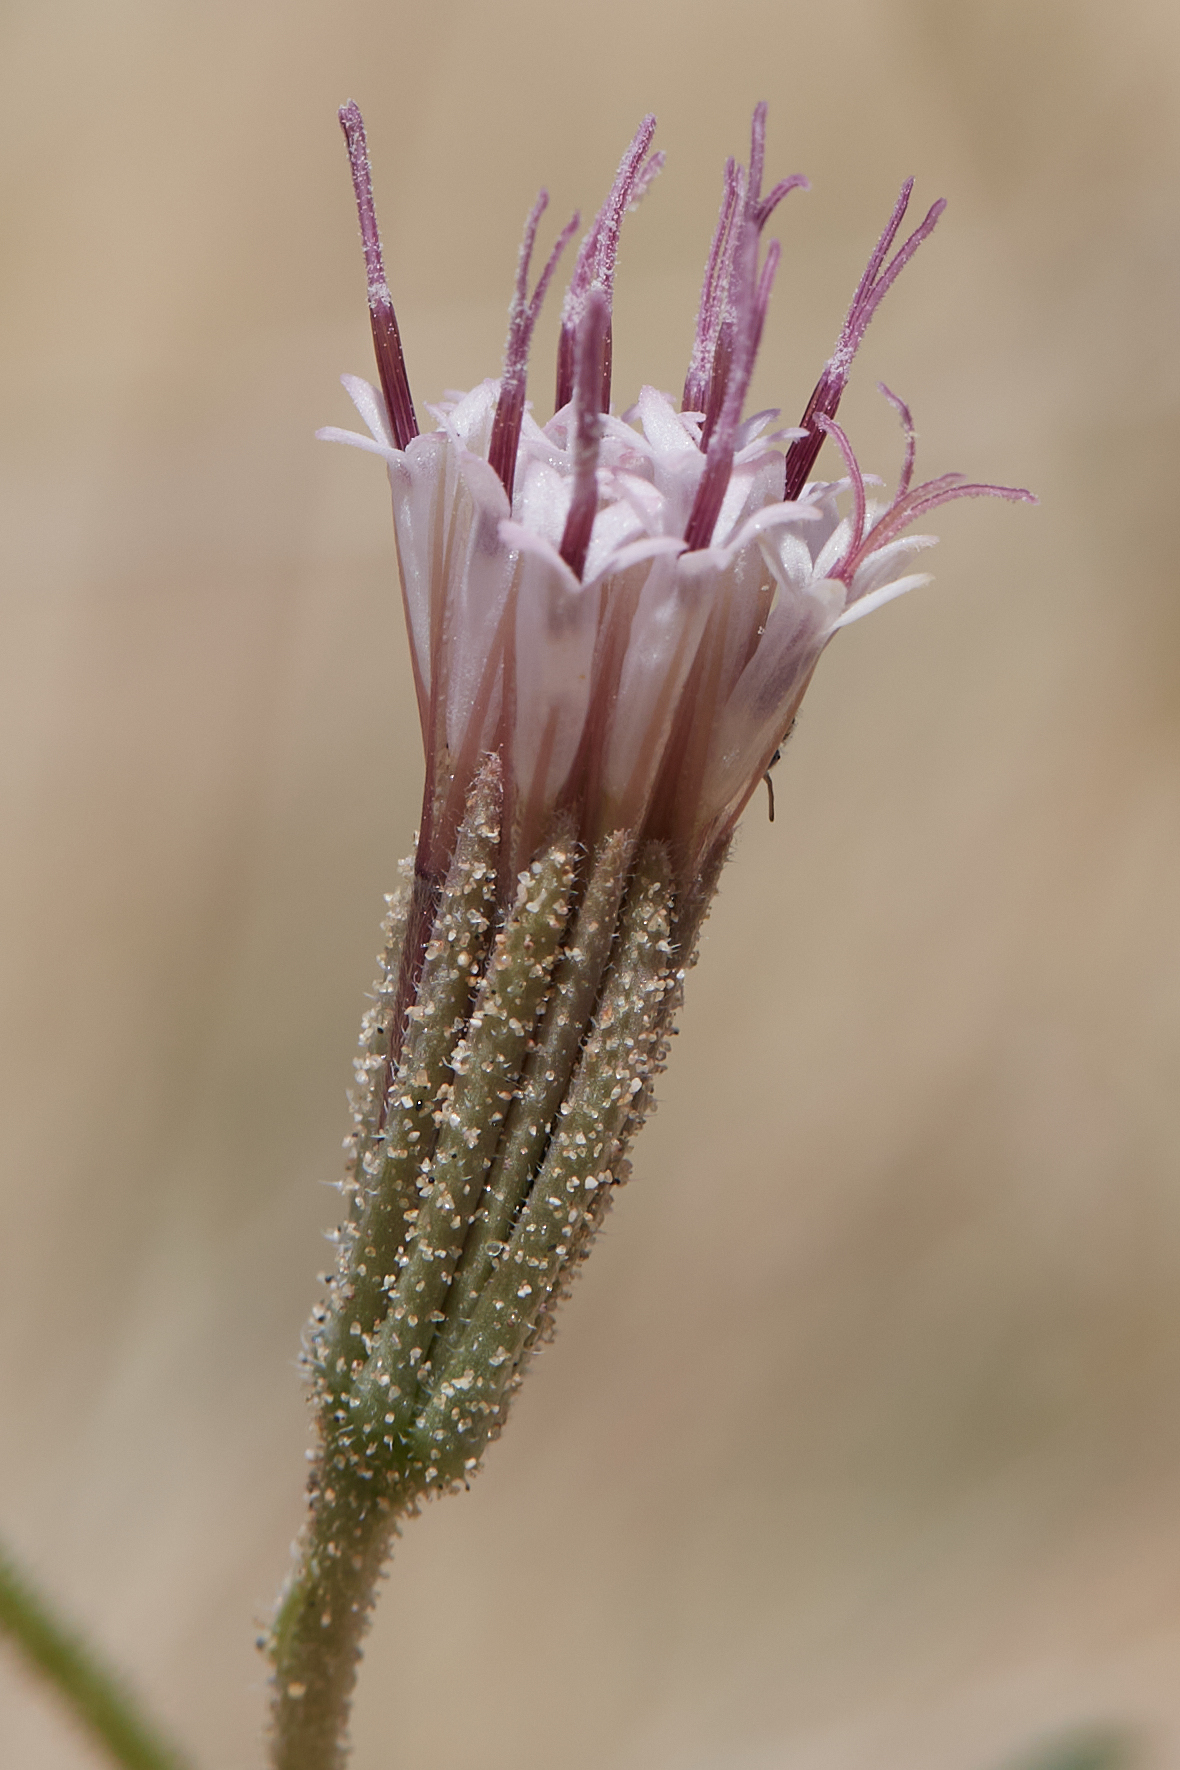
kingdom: Plantae
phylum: Tracheophyta
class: Magnoliopsida
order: Asterales
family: Asteraceae
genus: Palafoxia
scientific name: Palafoxia arida
